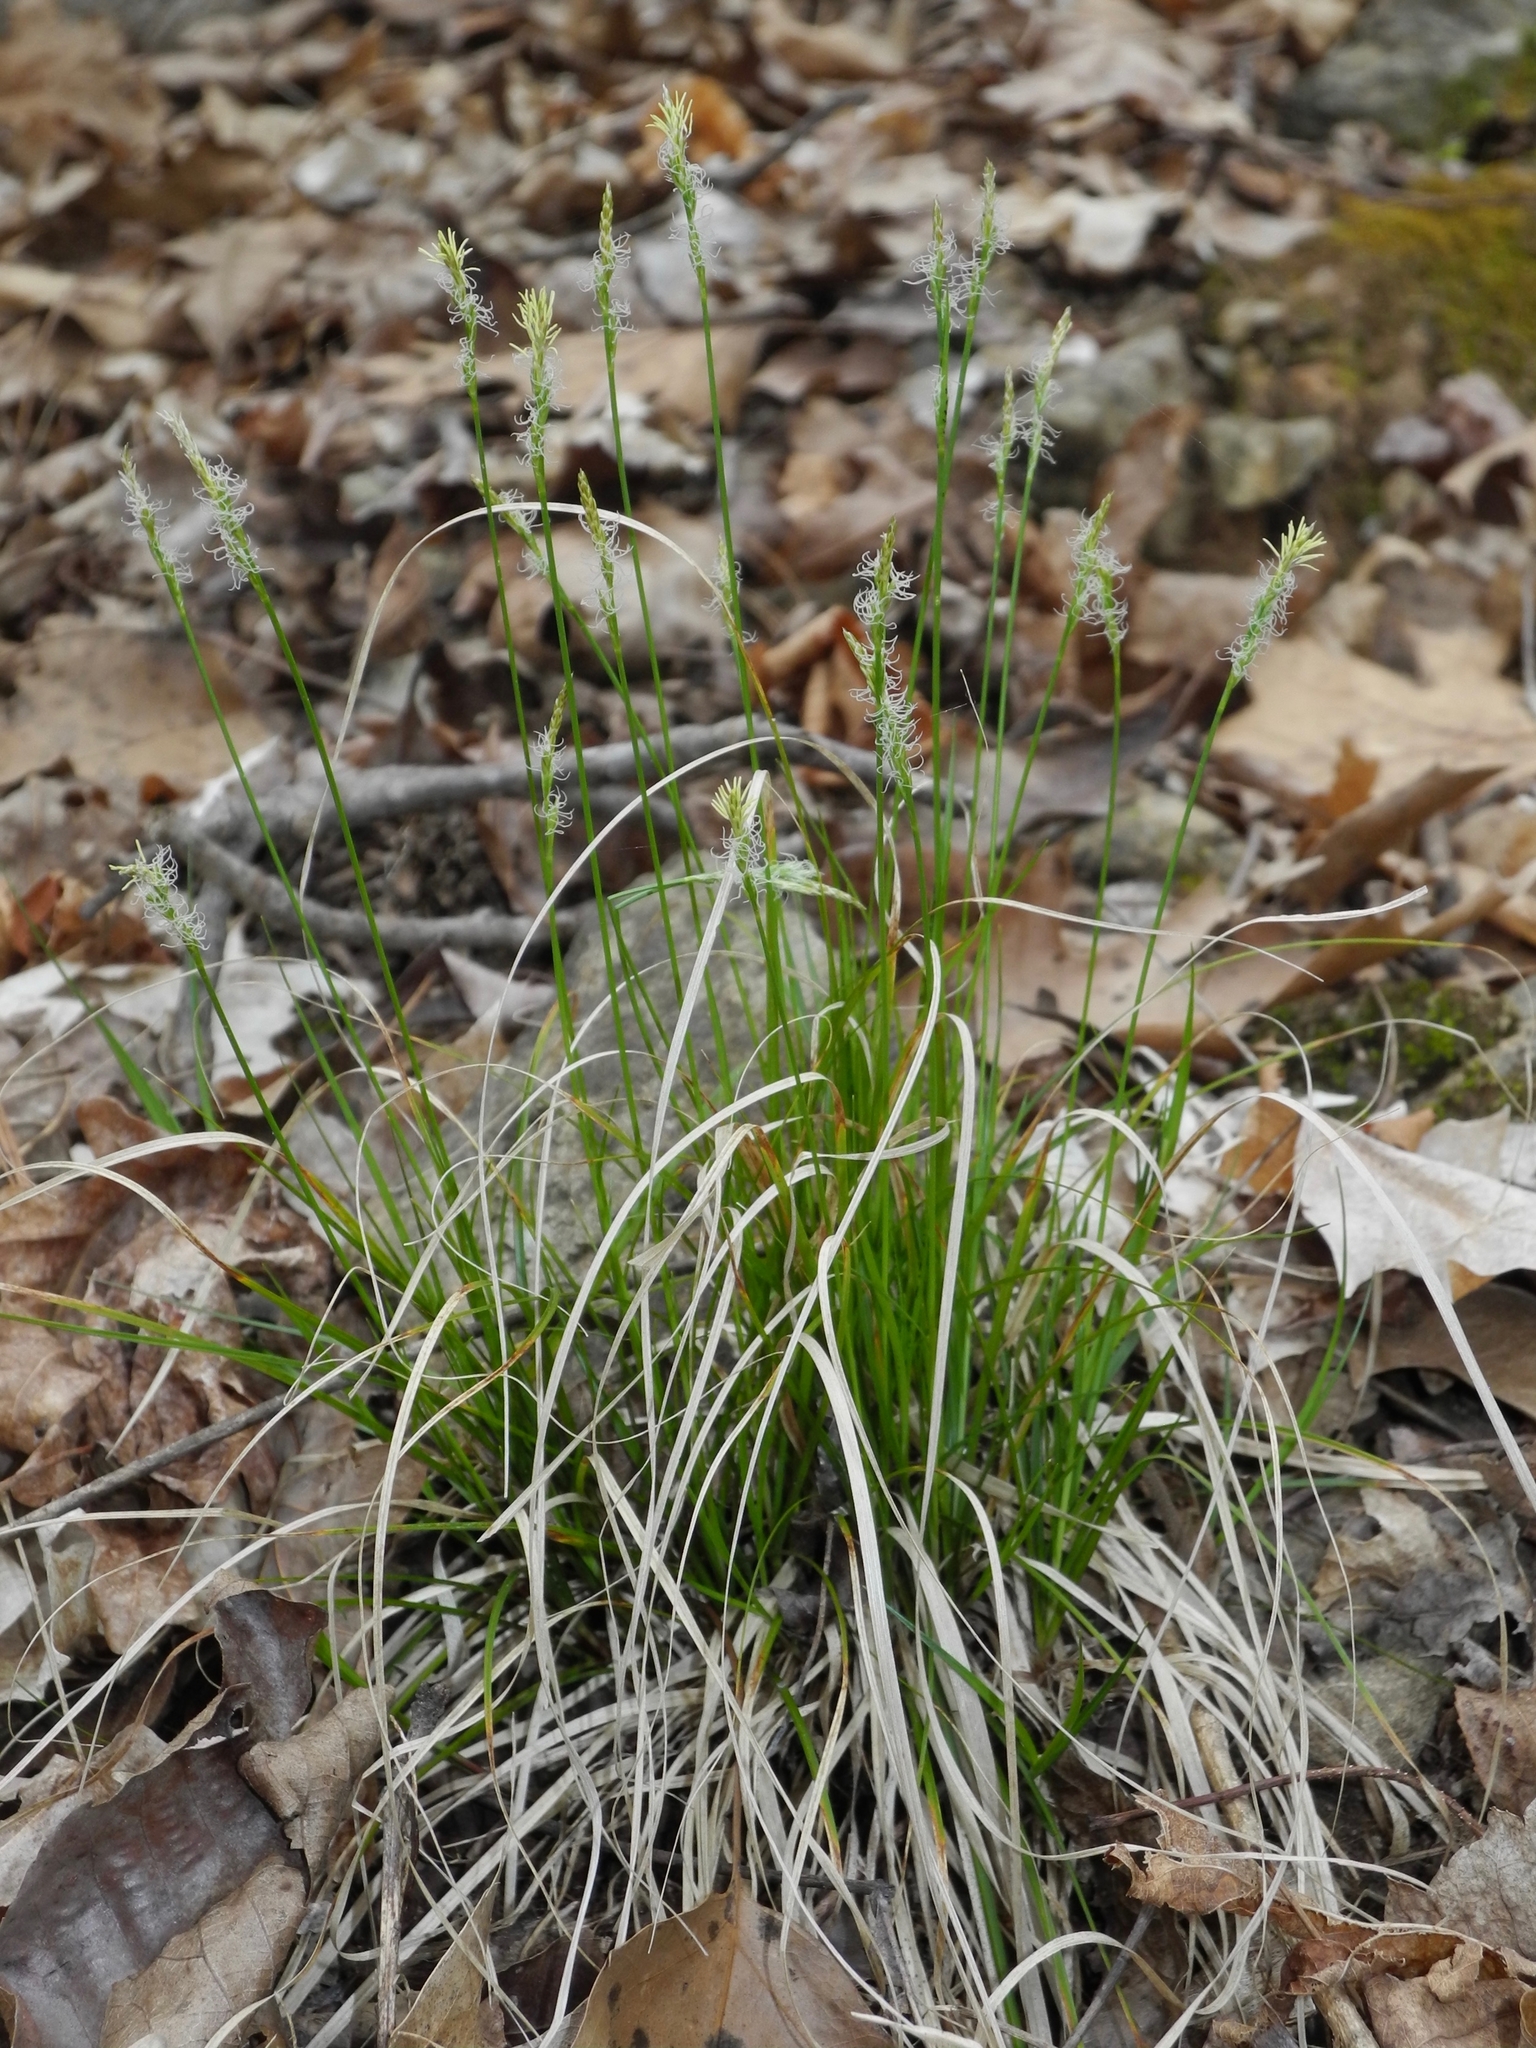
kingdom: Plantae
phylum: Tracheophyta
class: Liliopsida
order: Poales
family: Cyperaceae
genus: Carex
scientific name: Carex pensylvanica
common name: Common oak sedge
